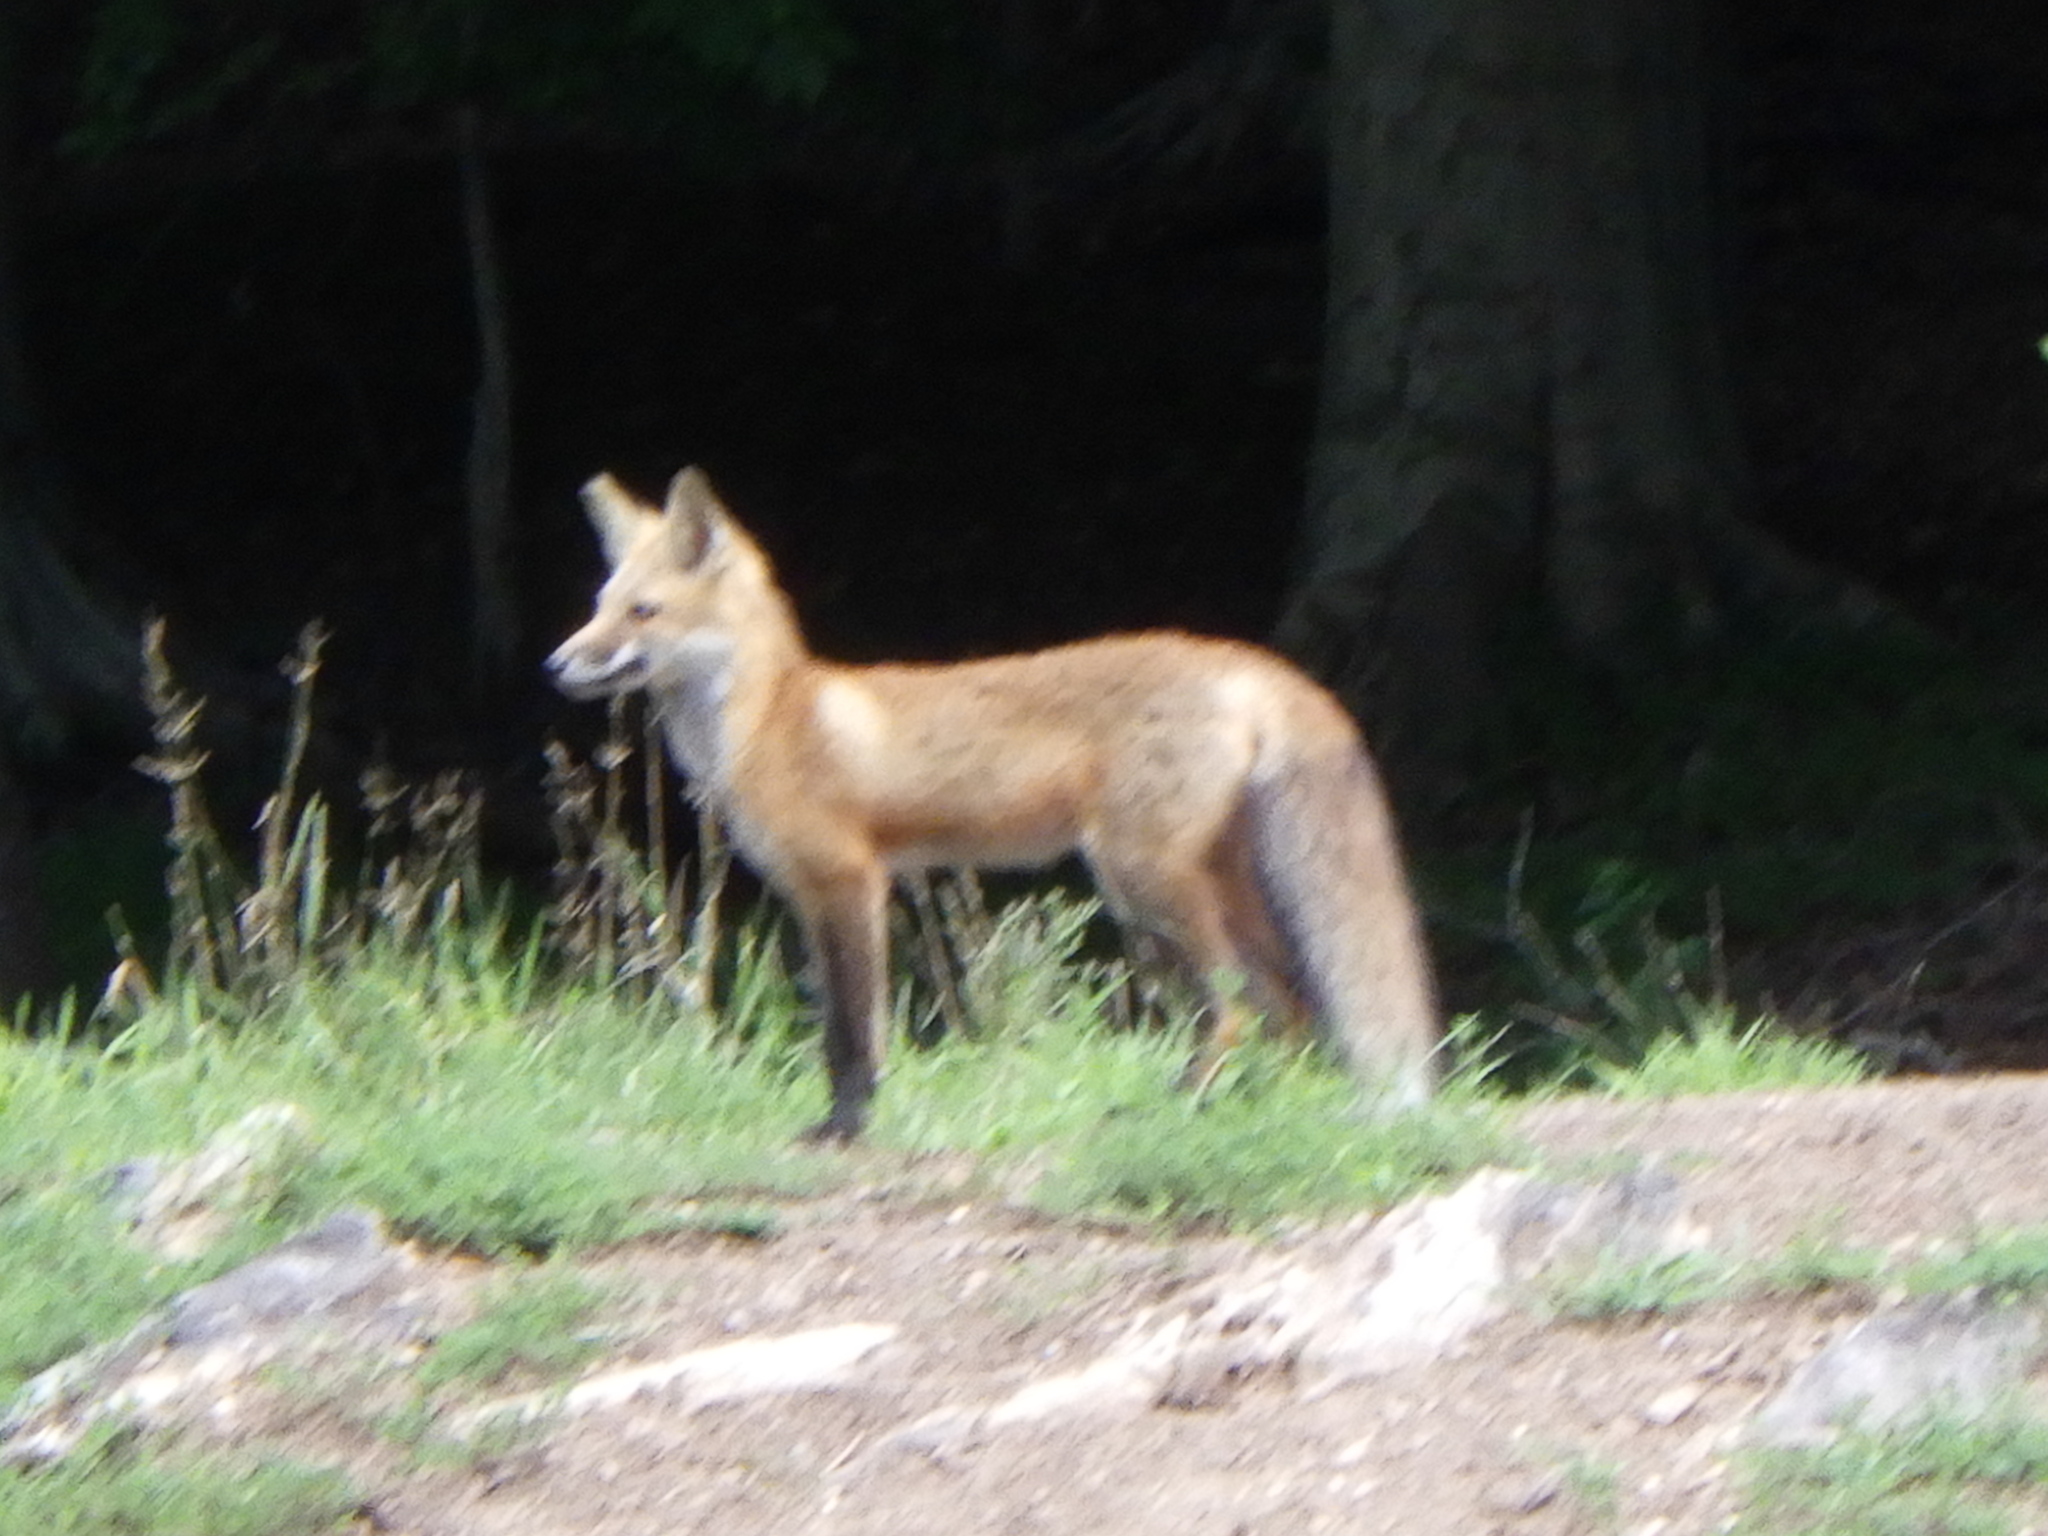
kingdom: Animalia
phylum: Chordata
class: Mammalia
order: Carnivora
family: Canidae
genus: Vulpes
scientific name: Vulpes vulpes
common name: Red fox
